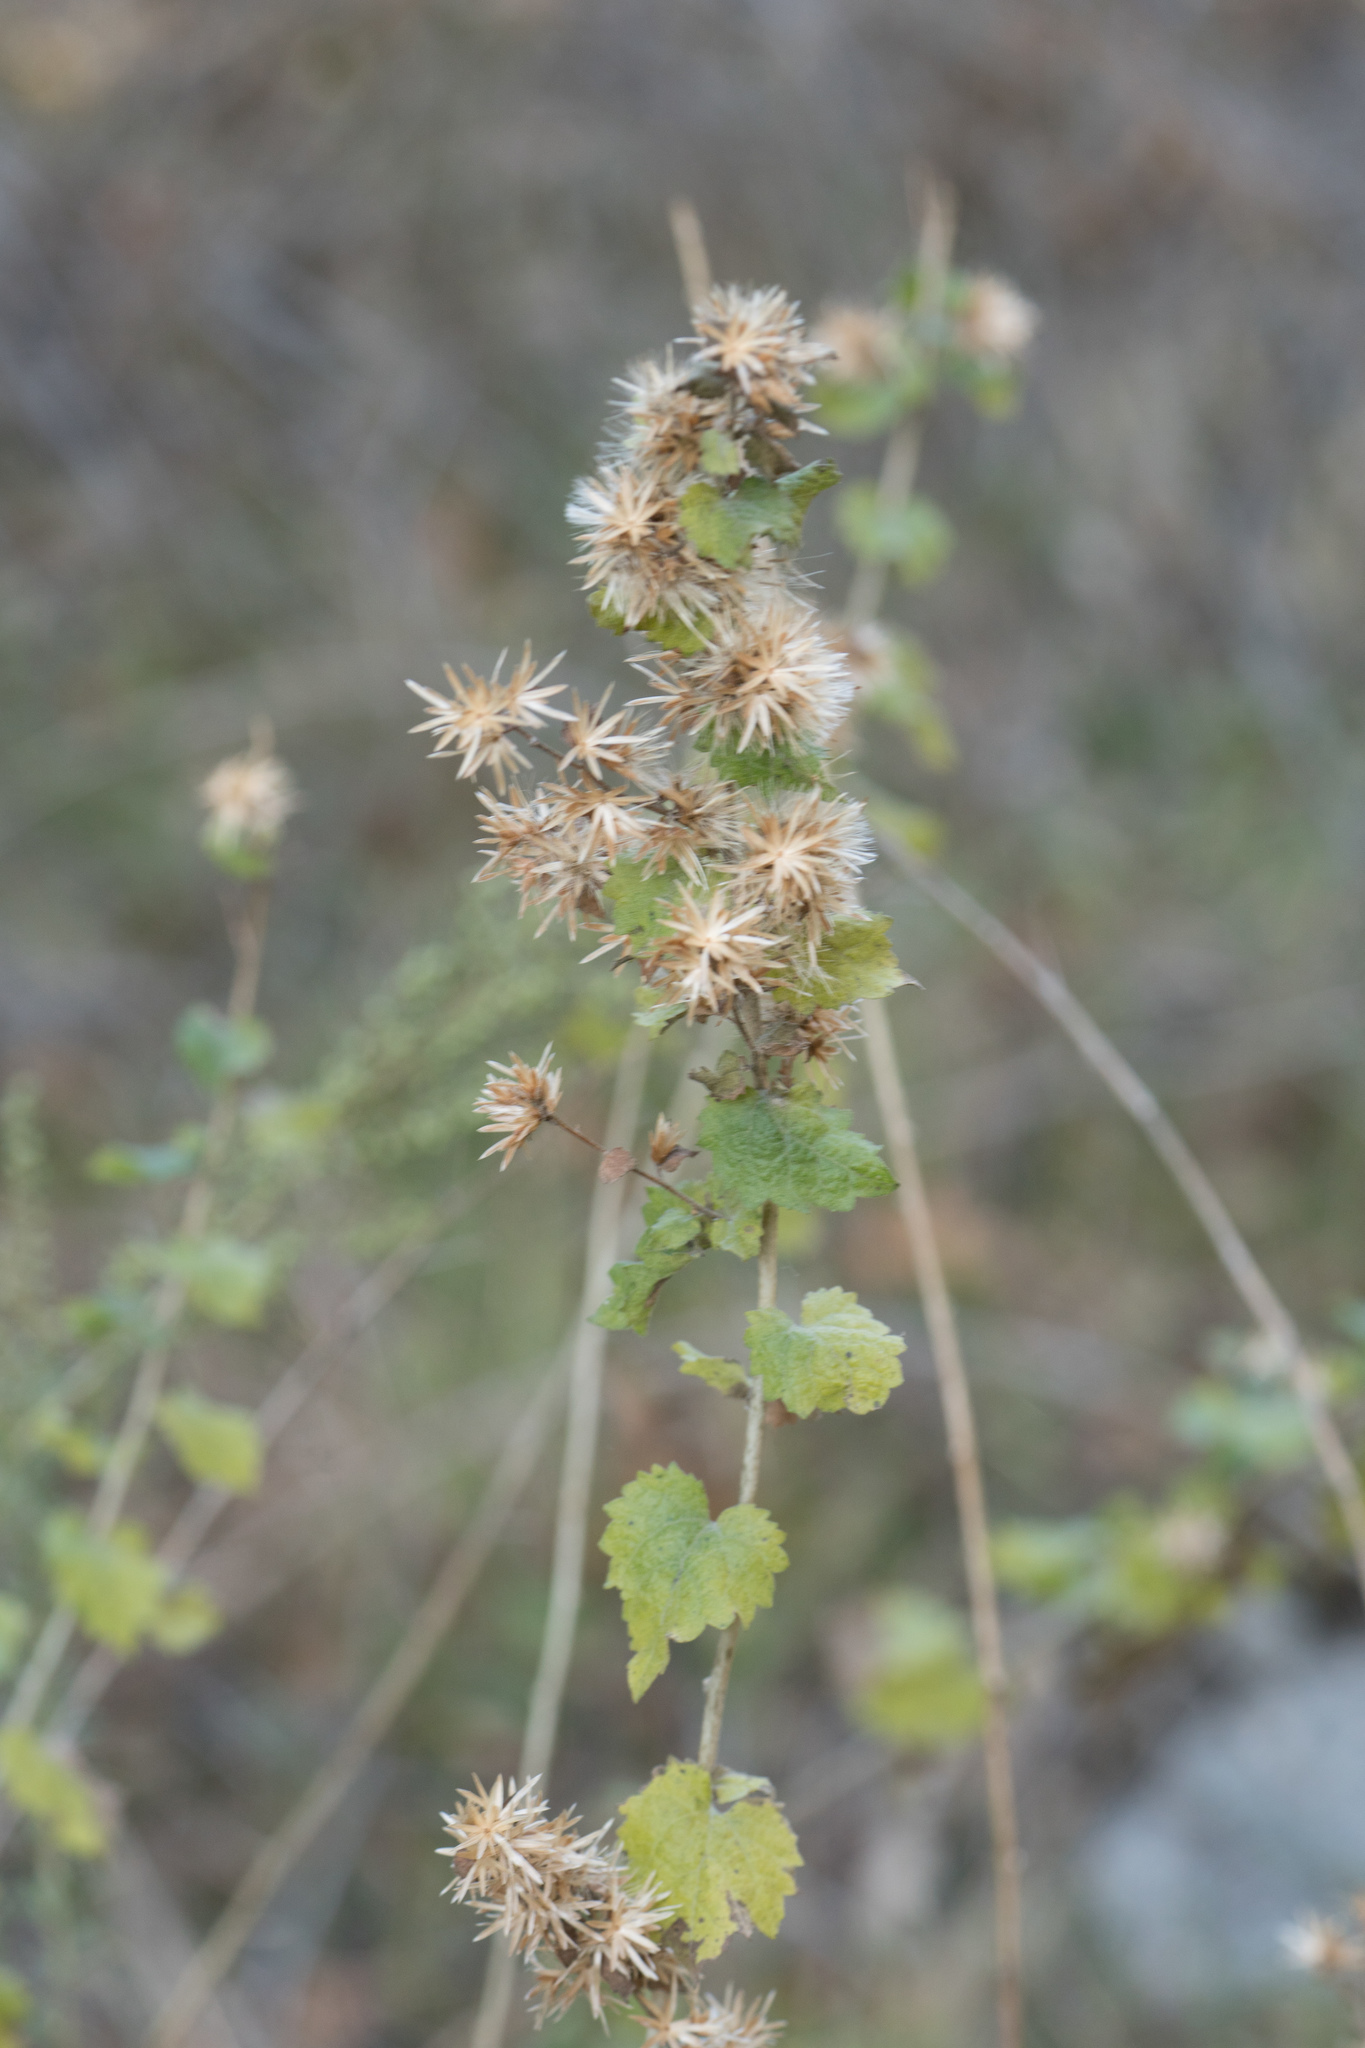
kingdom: Plantae
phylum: Tracheophyta
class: Magnoliopsida
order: Asterales
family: Asteraceae
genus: Brickellia
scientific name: Brickellia californica
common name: California brickellbush
